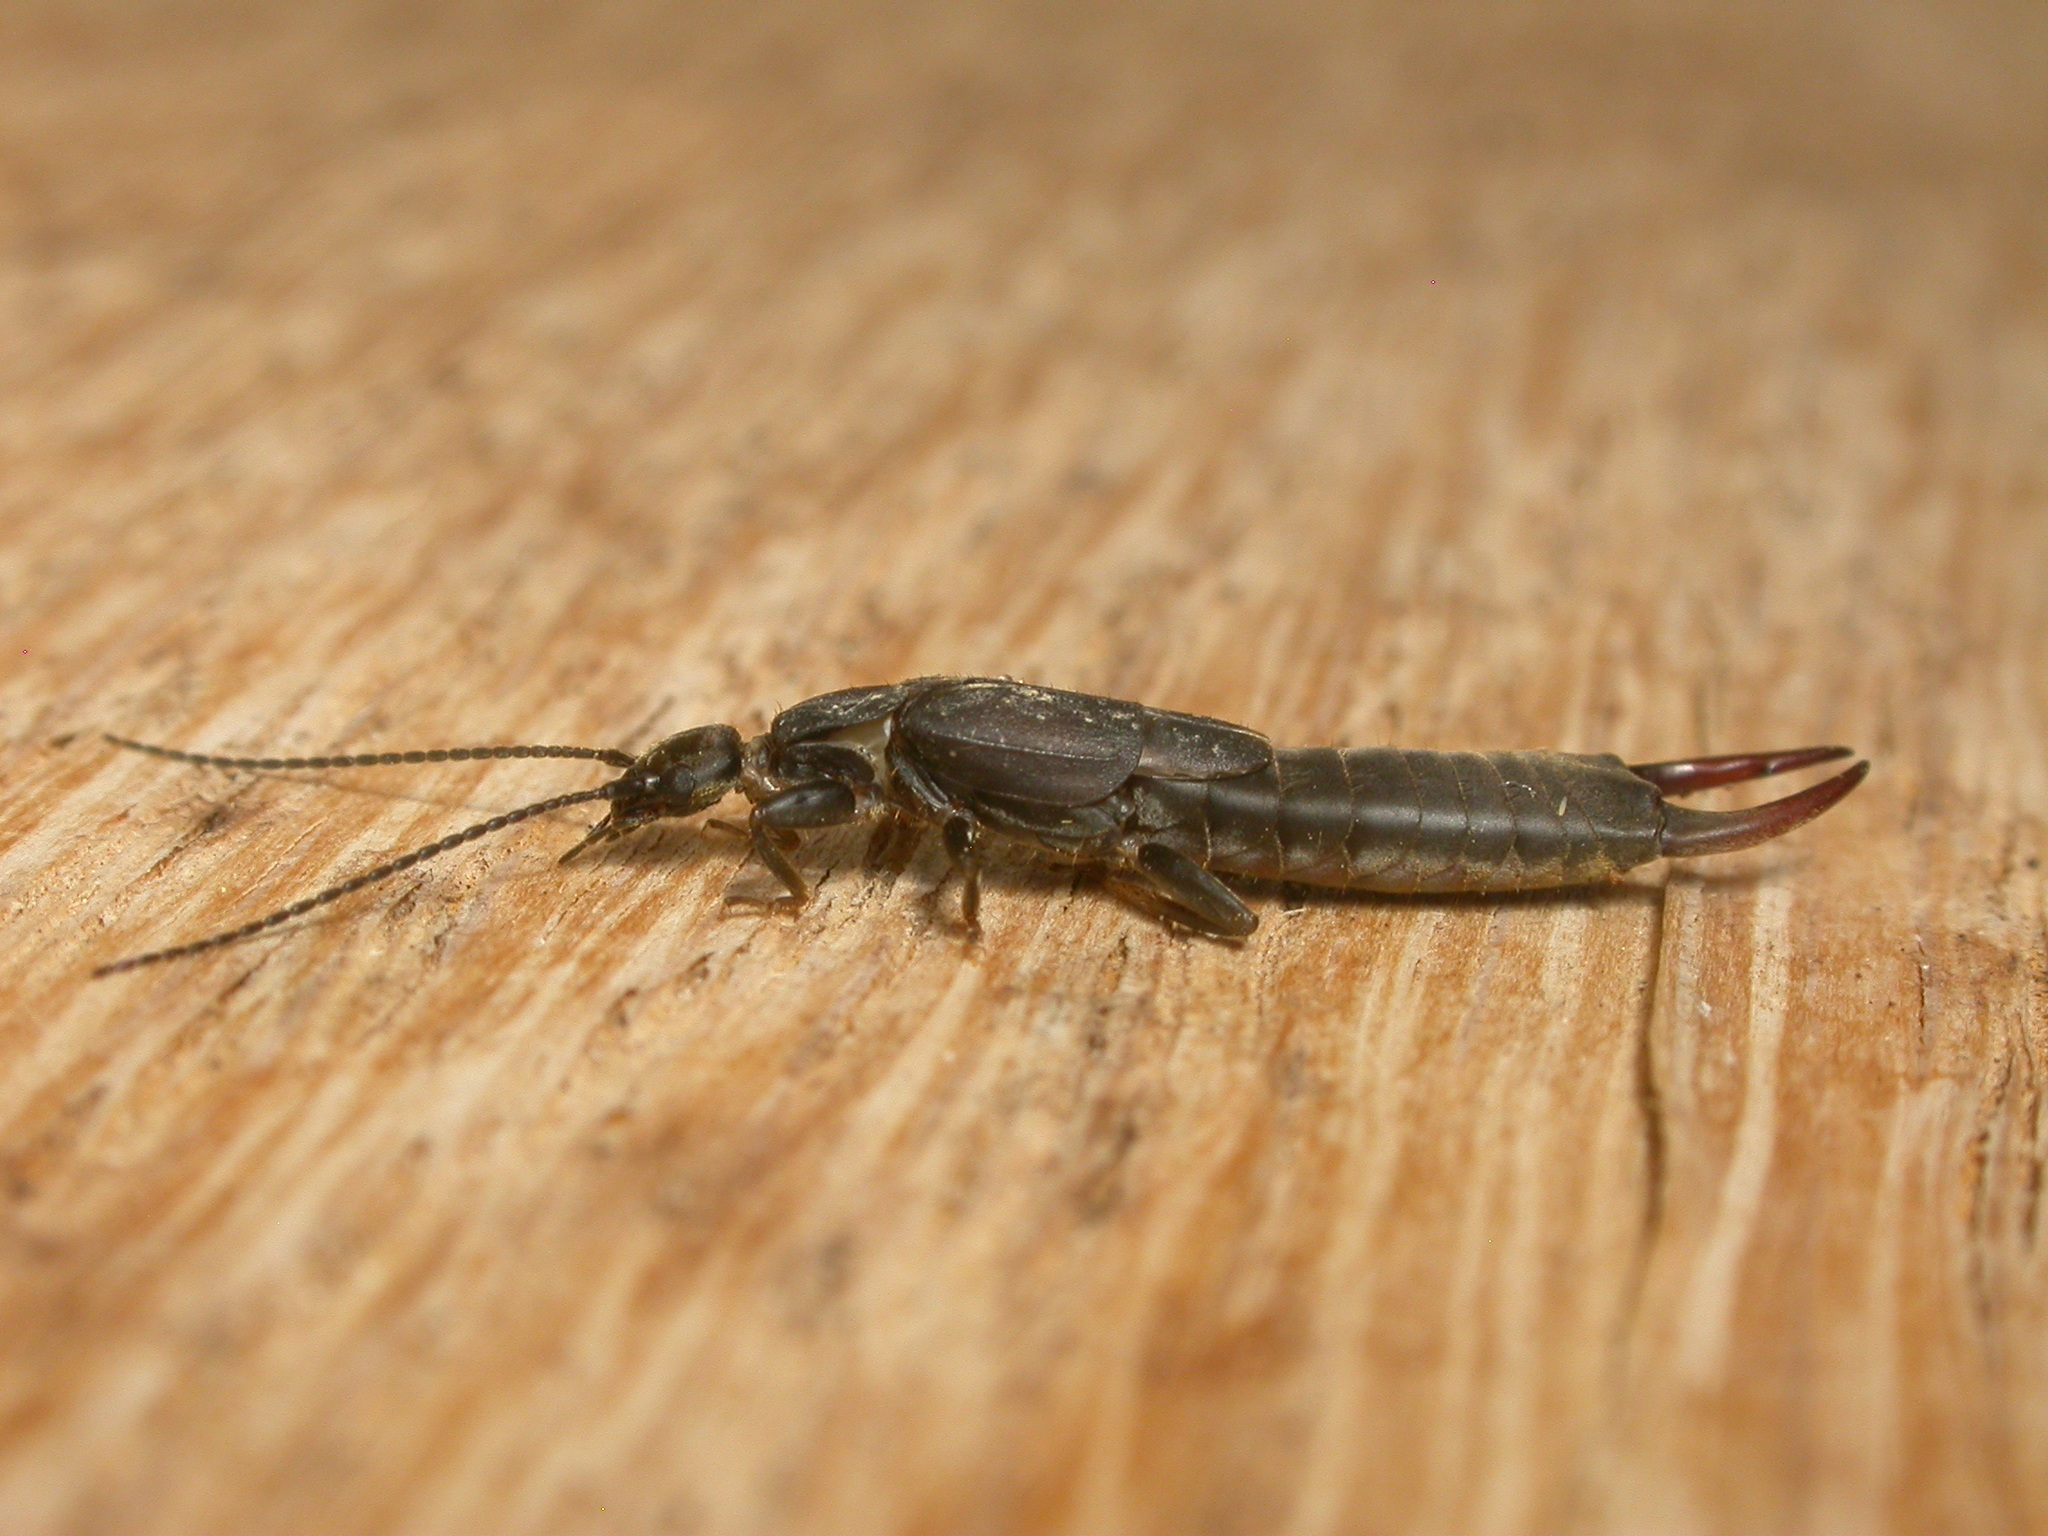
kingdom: Animalia
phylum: Arthropoda
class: Insecta
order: Dermaptera
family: Labiduridae
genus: Nala
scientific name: Nala lividipes
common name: Earwig
